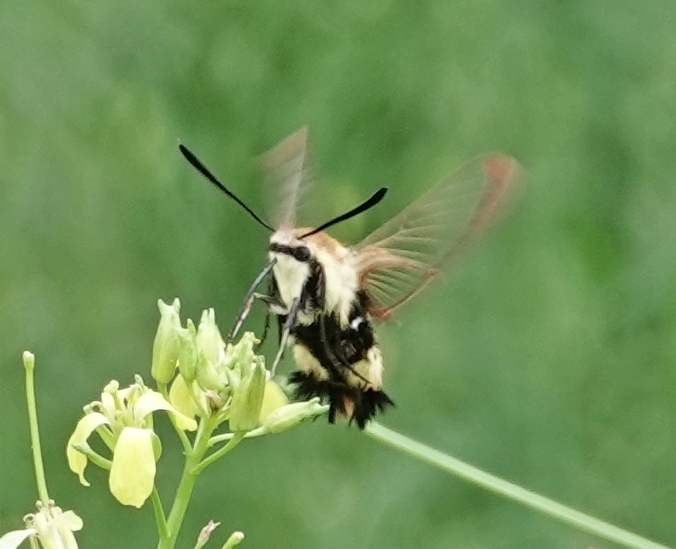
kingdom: Animalia
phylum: Arthropoda
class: Insecta
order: Lepidoptera
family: Sphingidae
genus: Hemaris
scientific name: Hemaris diffinis
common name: Bumblebee moth
